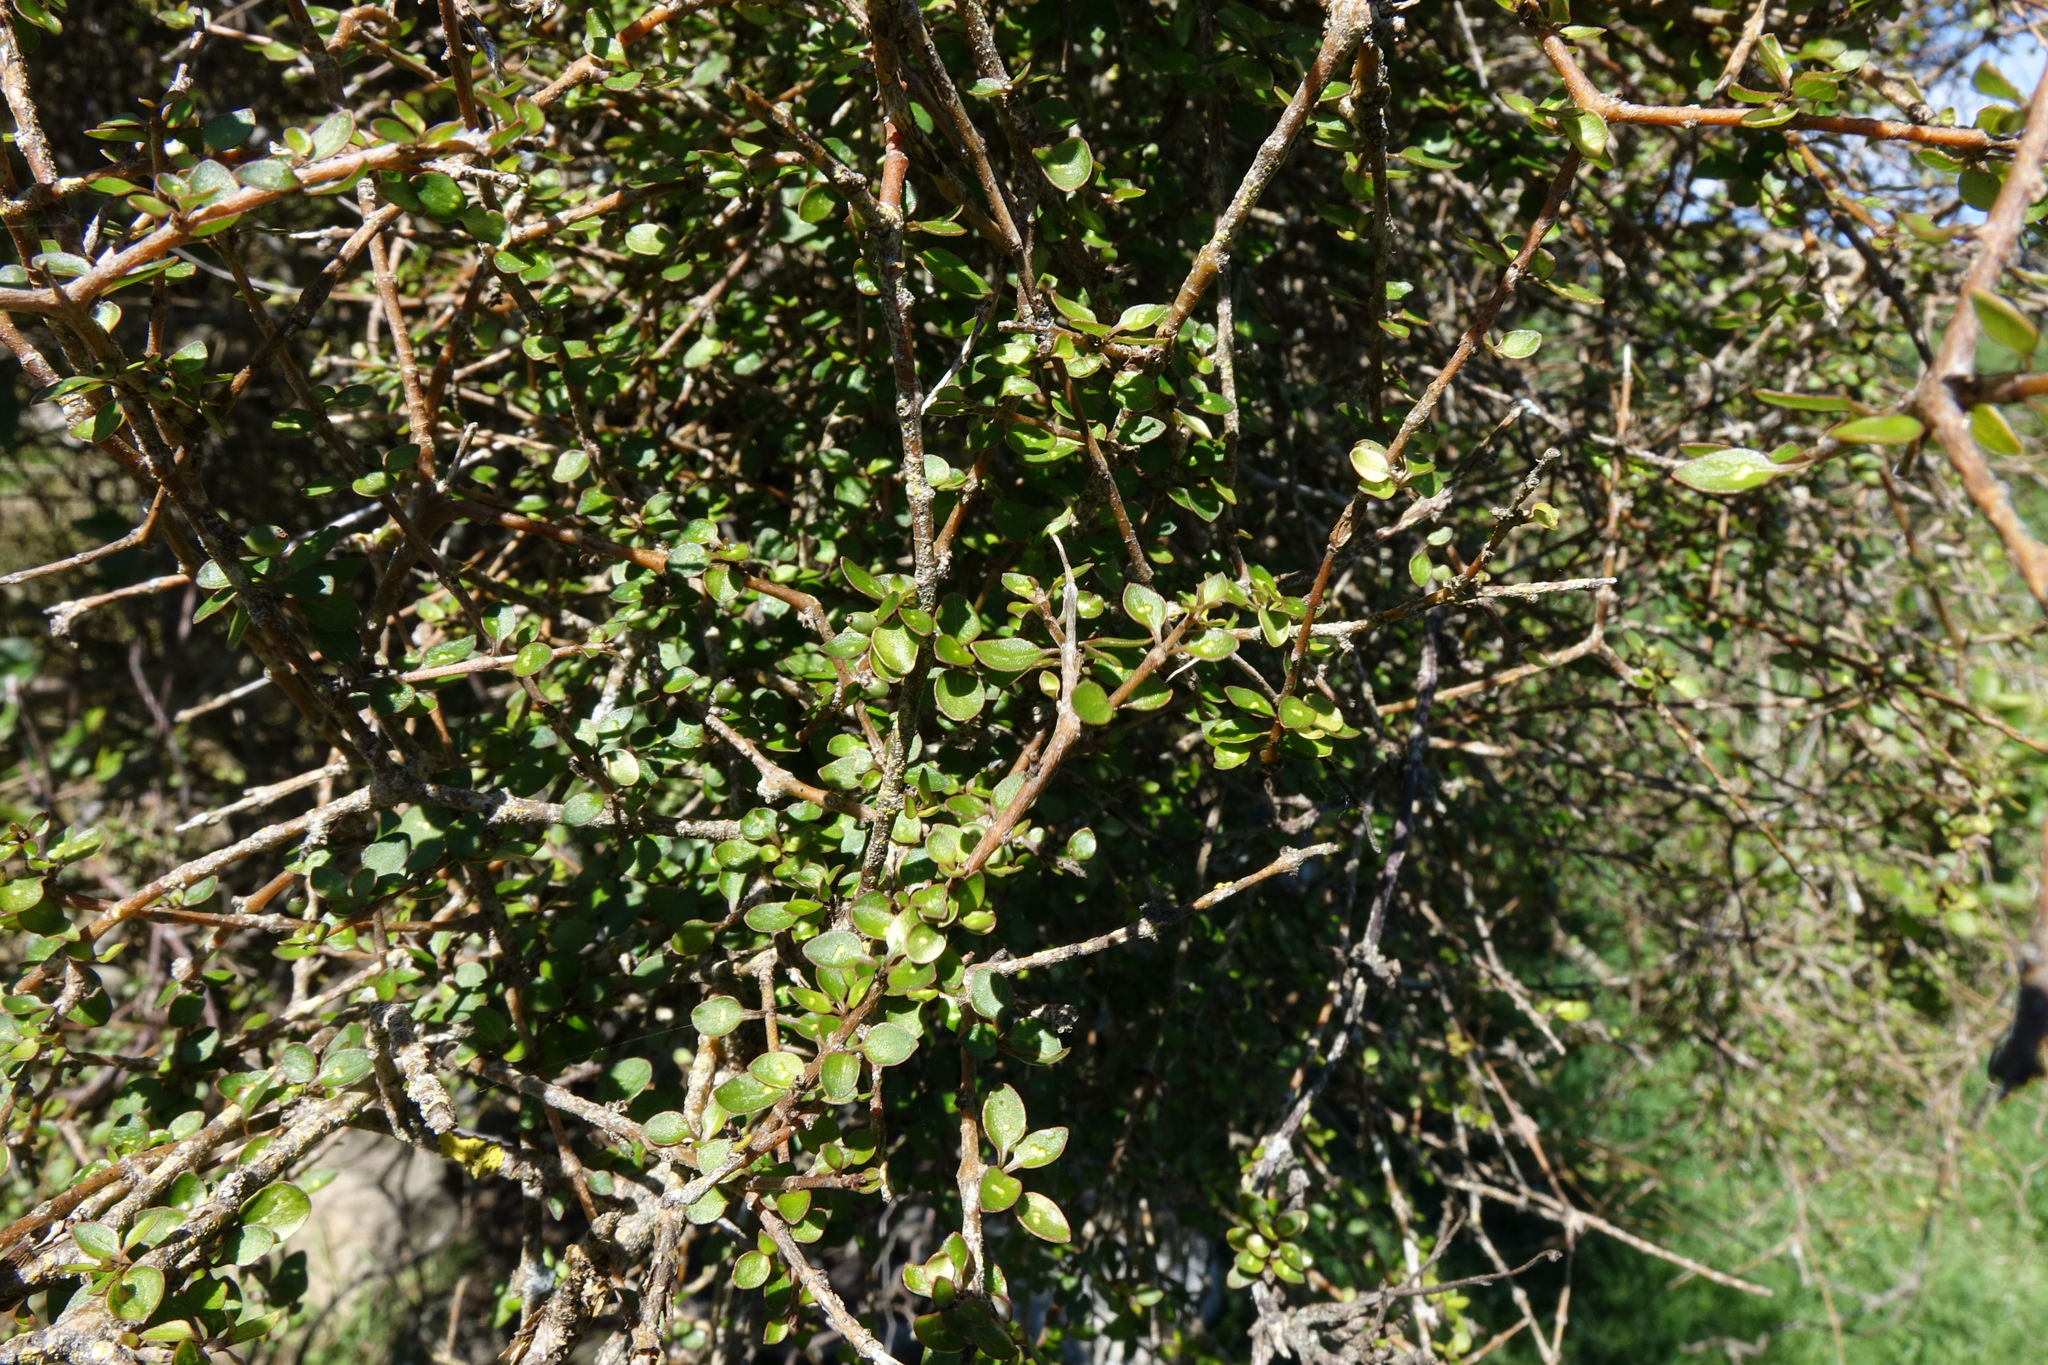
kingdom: Plantae
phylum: Tracheophyta
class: Magnoliopsida
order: Gentianales
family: Rubiaceae
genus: Coprosma
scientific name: Coprosma virescens
